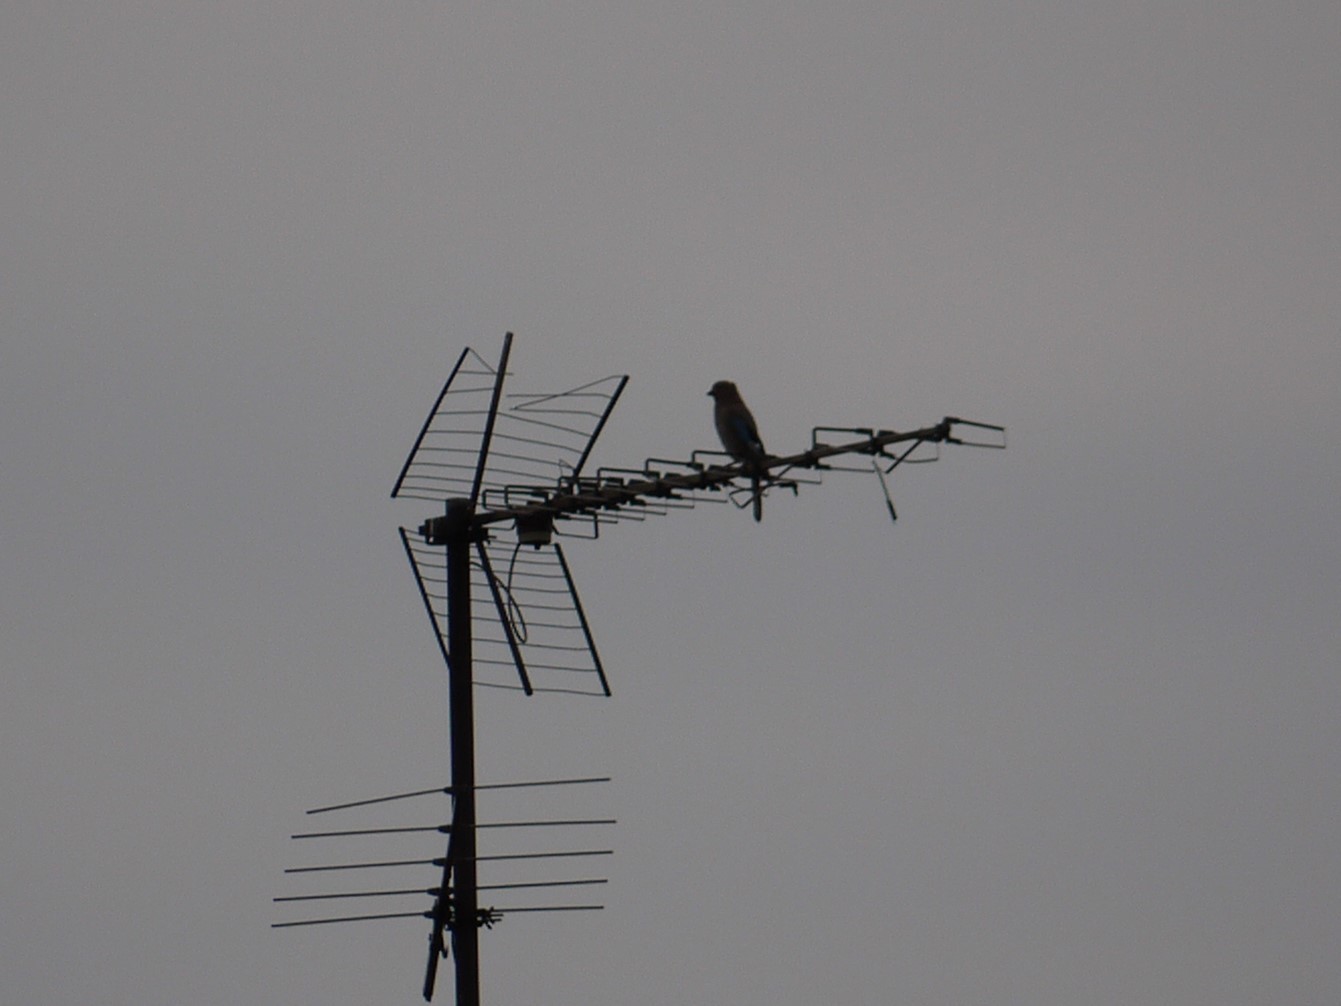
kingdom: Animalia
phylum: Chordata
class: Aves
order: Passeriformes
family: Corvidae
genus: Garrulus
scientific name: Garrulus glandarius
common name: Eurasian jay
